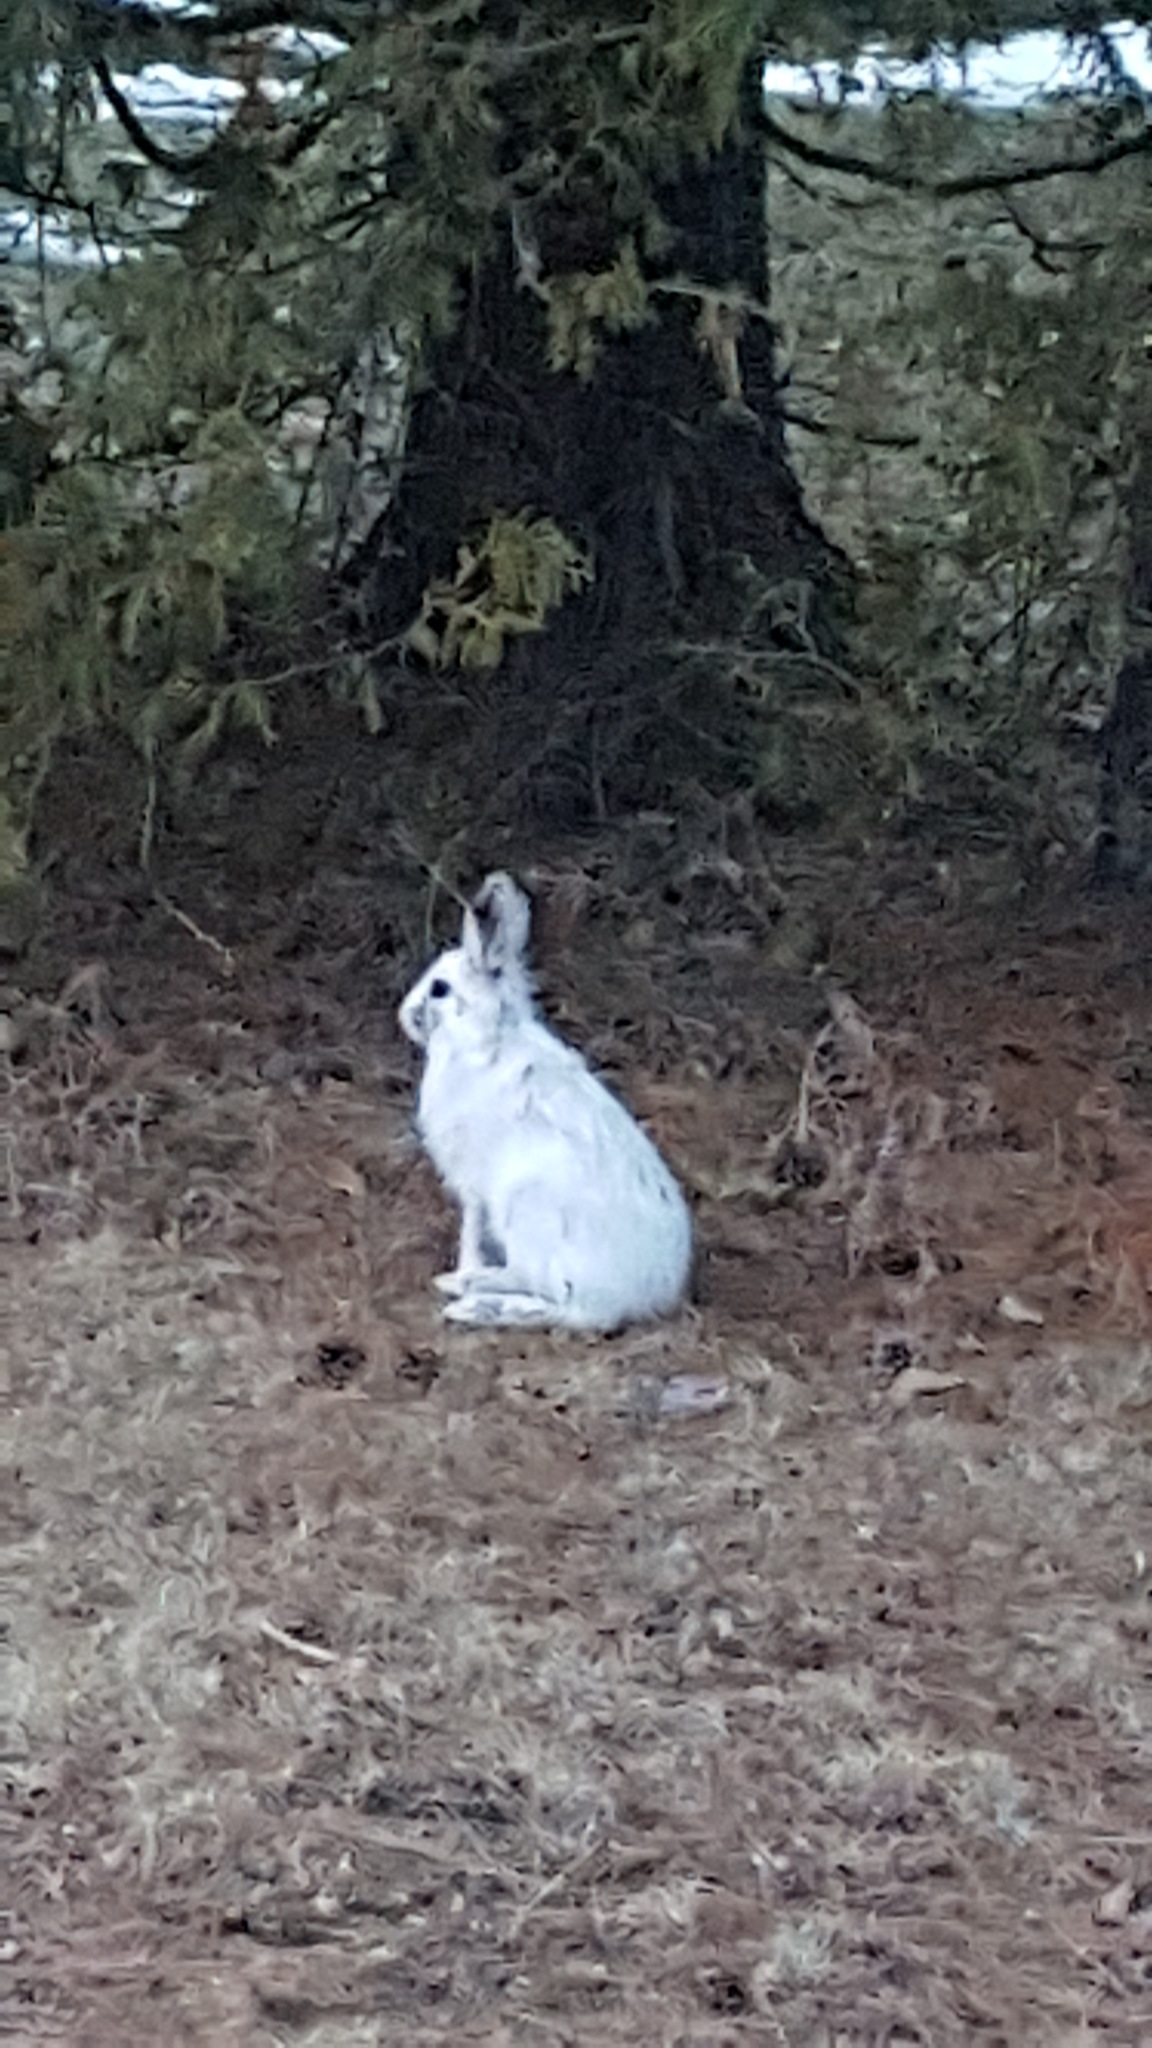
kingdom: Animalia
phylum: Chordata
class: Mammalia
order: Lagomorpha
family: Leporidae
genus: Lepus
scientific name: Lepus americanus
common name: Snowshoe hare
